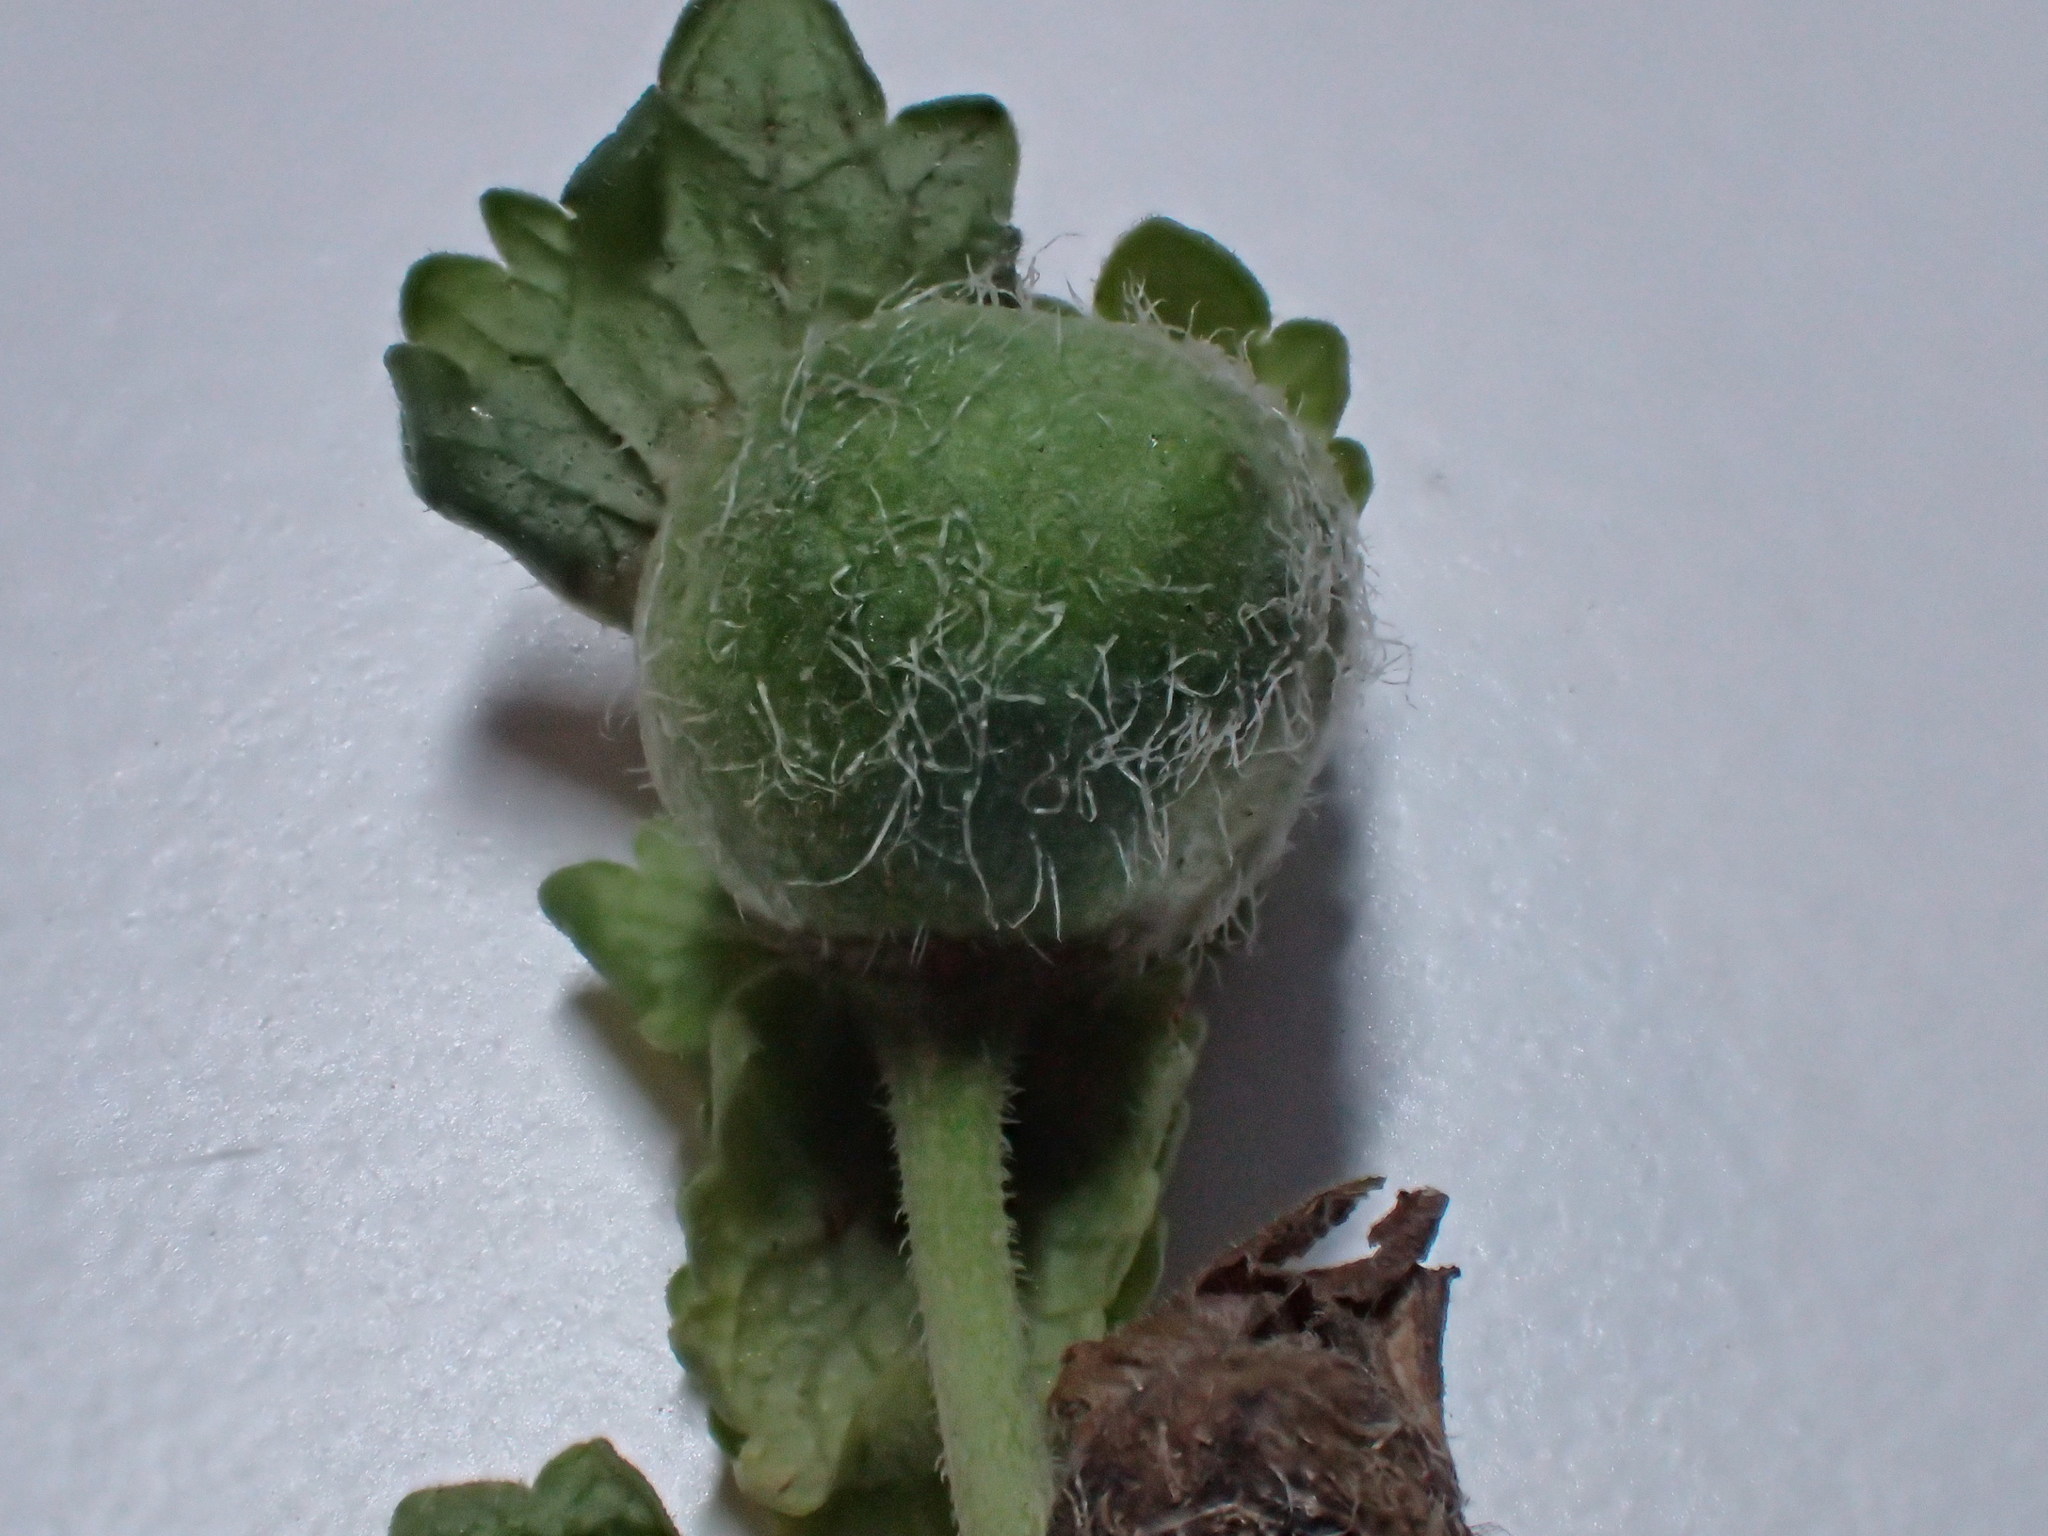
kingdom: Animalia
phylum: Arthropoda
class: Insecta
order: Hymenoptera
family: Cynipidae
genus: Liposthenes
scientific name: Liposthenes glechomae
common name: Gall wasp
